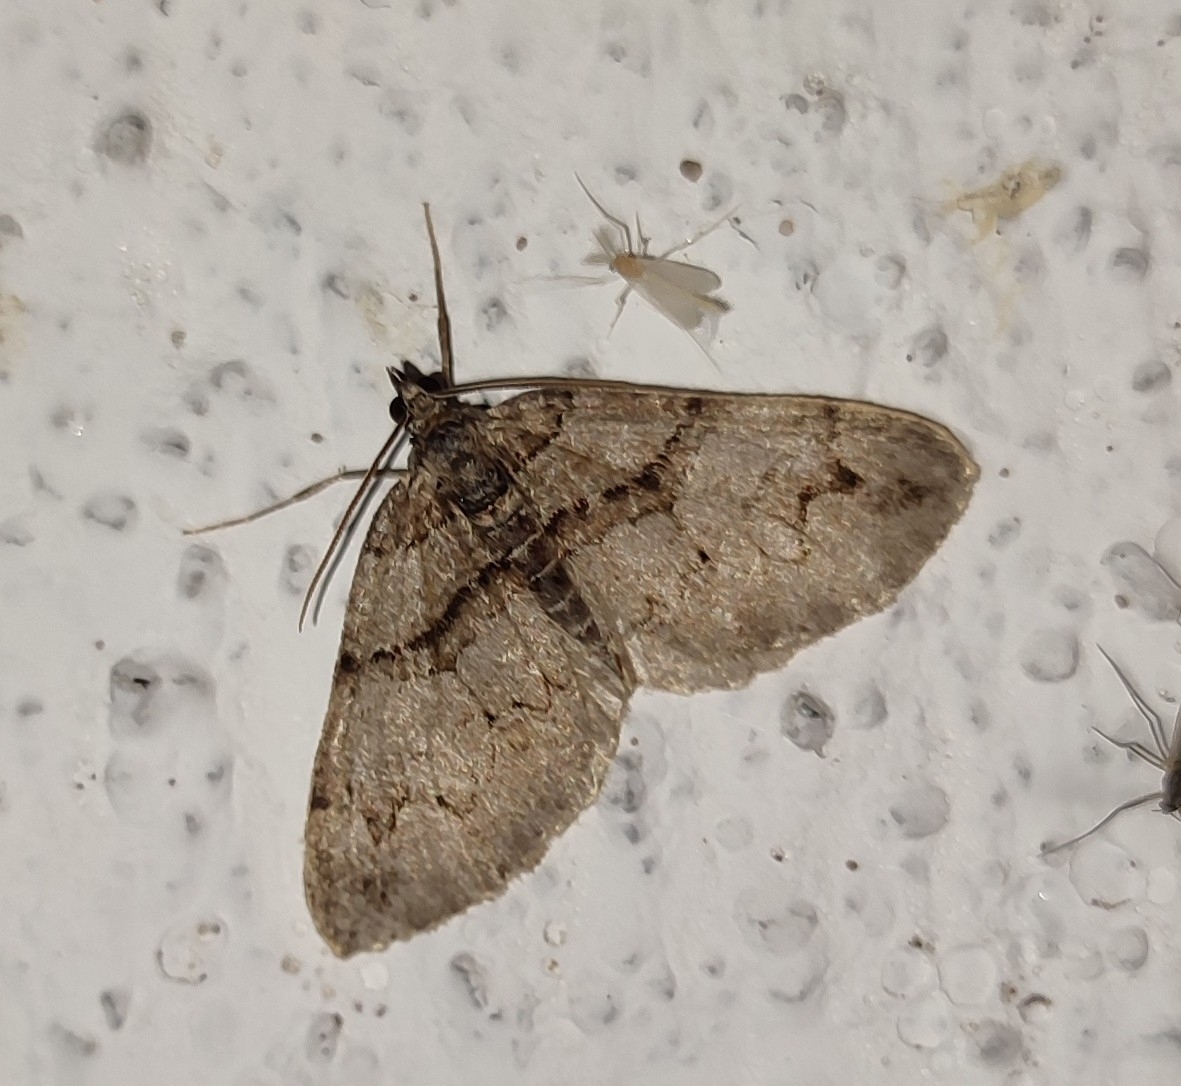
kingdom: Animalia
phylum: Arthropoda
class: Insecta
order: Lepidoptera
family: Geometridae
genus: Pareulype
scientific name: Pareulype berberata
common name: Barberry carpet
